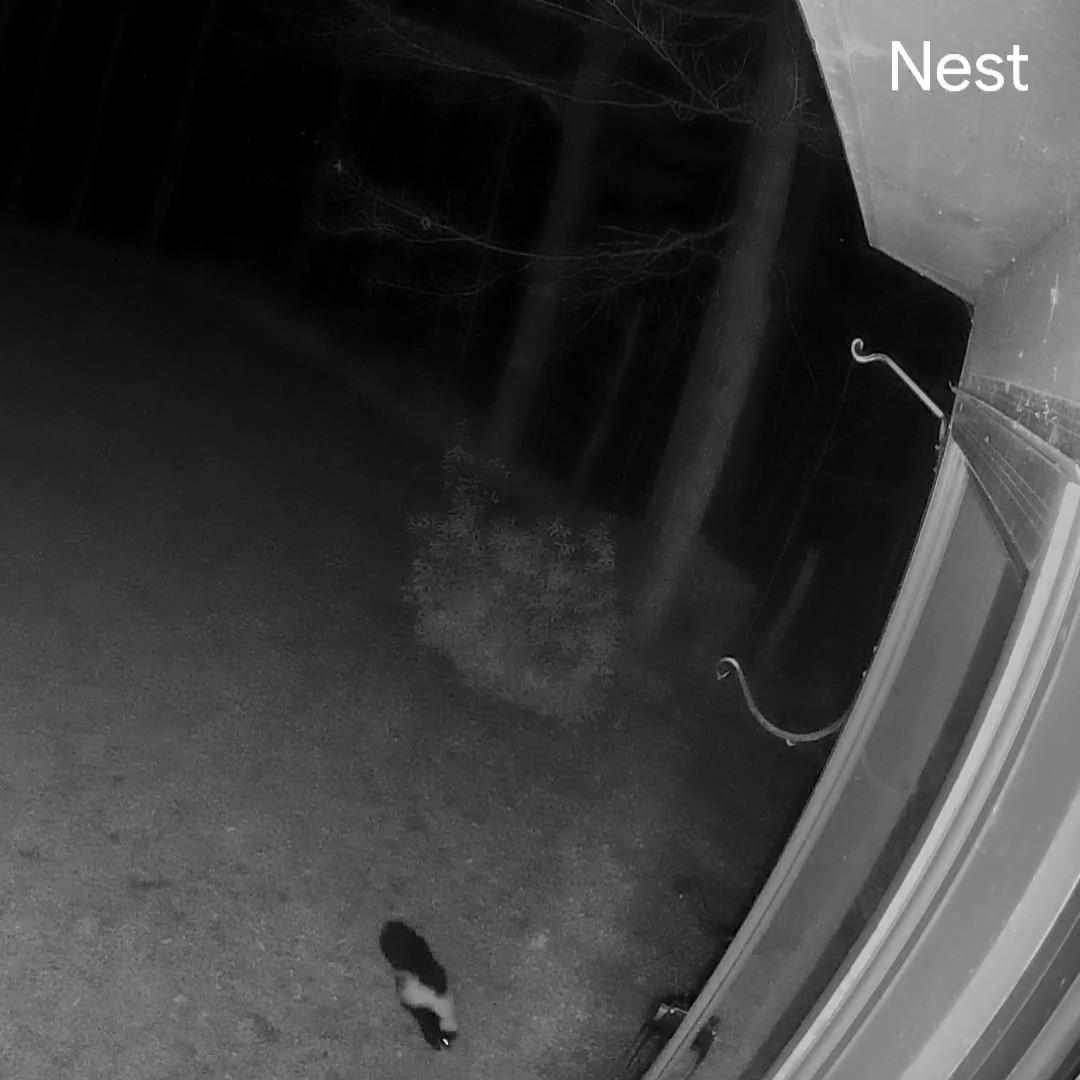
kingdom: Animalia
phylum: Chordata
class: Mammalia
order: Carnivora
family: Mephitidae
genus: Mephitis
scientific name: Mephitis mephitis
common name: Striped skunk
